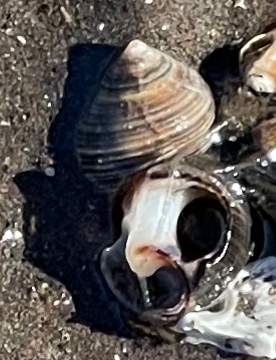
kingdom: Animalia
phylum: Mollusca
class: Gastropoda
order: Littorinimorpha
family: Littorinidae
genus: Littorina
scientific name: Littorina littorea
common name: Common periwinkle
